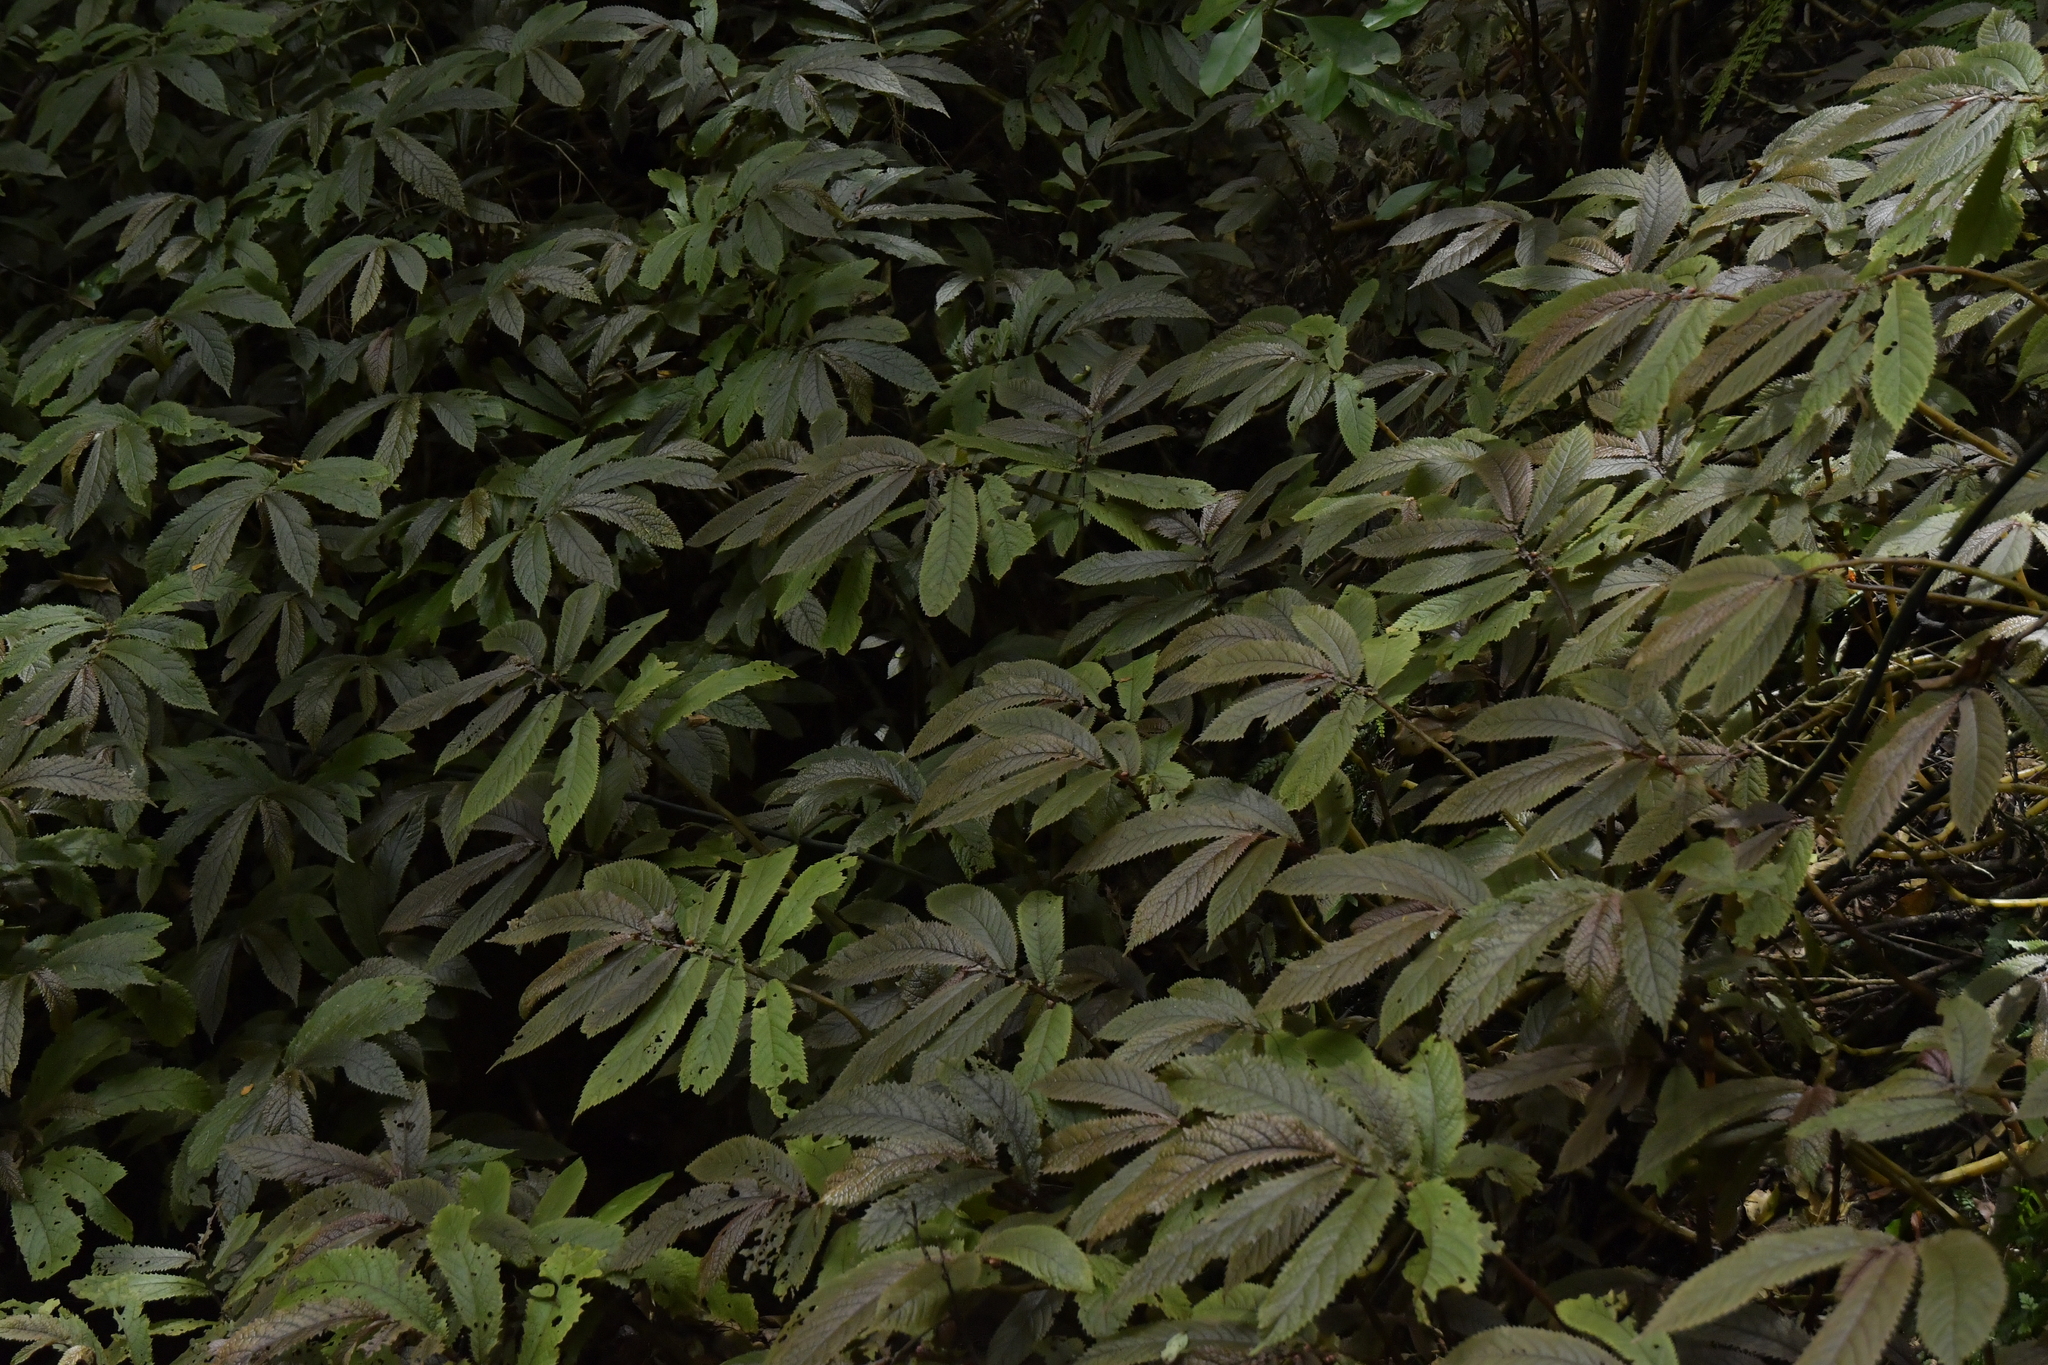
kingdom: Plantae
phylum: Tracheophyta
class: Magnoliopsida
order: Rosales
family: Urticaceae
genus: Elatostema
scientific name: Elatostema rugosum
